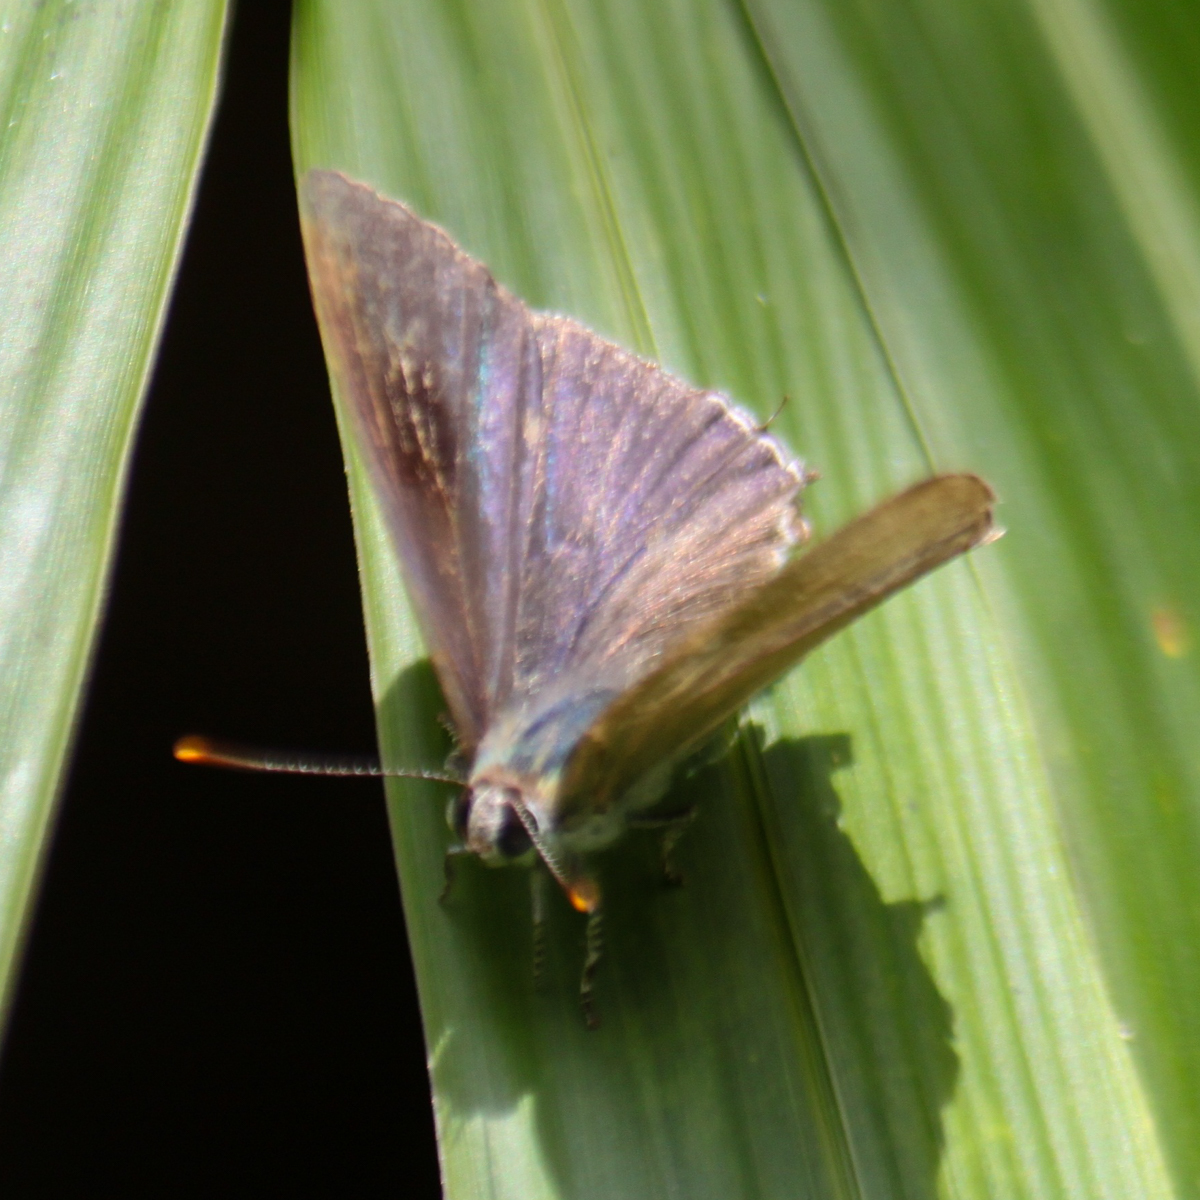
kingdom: Animalia
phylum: Arthropoda
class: Insecta
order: Lepidoptera
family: Lycaenidae
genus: Hypolycaena
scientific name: Hypolycaena erylus
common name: Common tit
